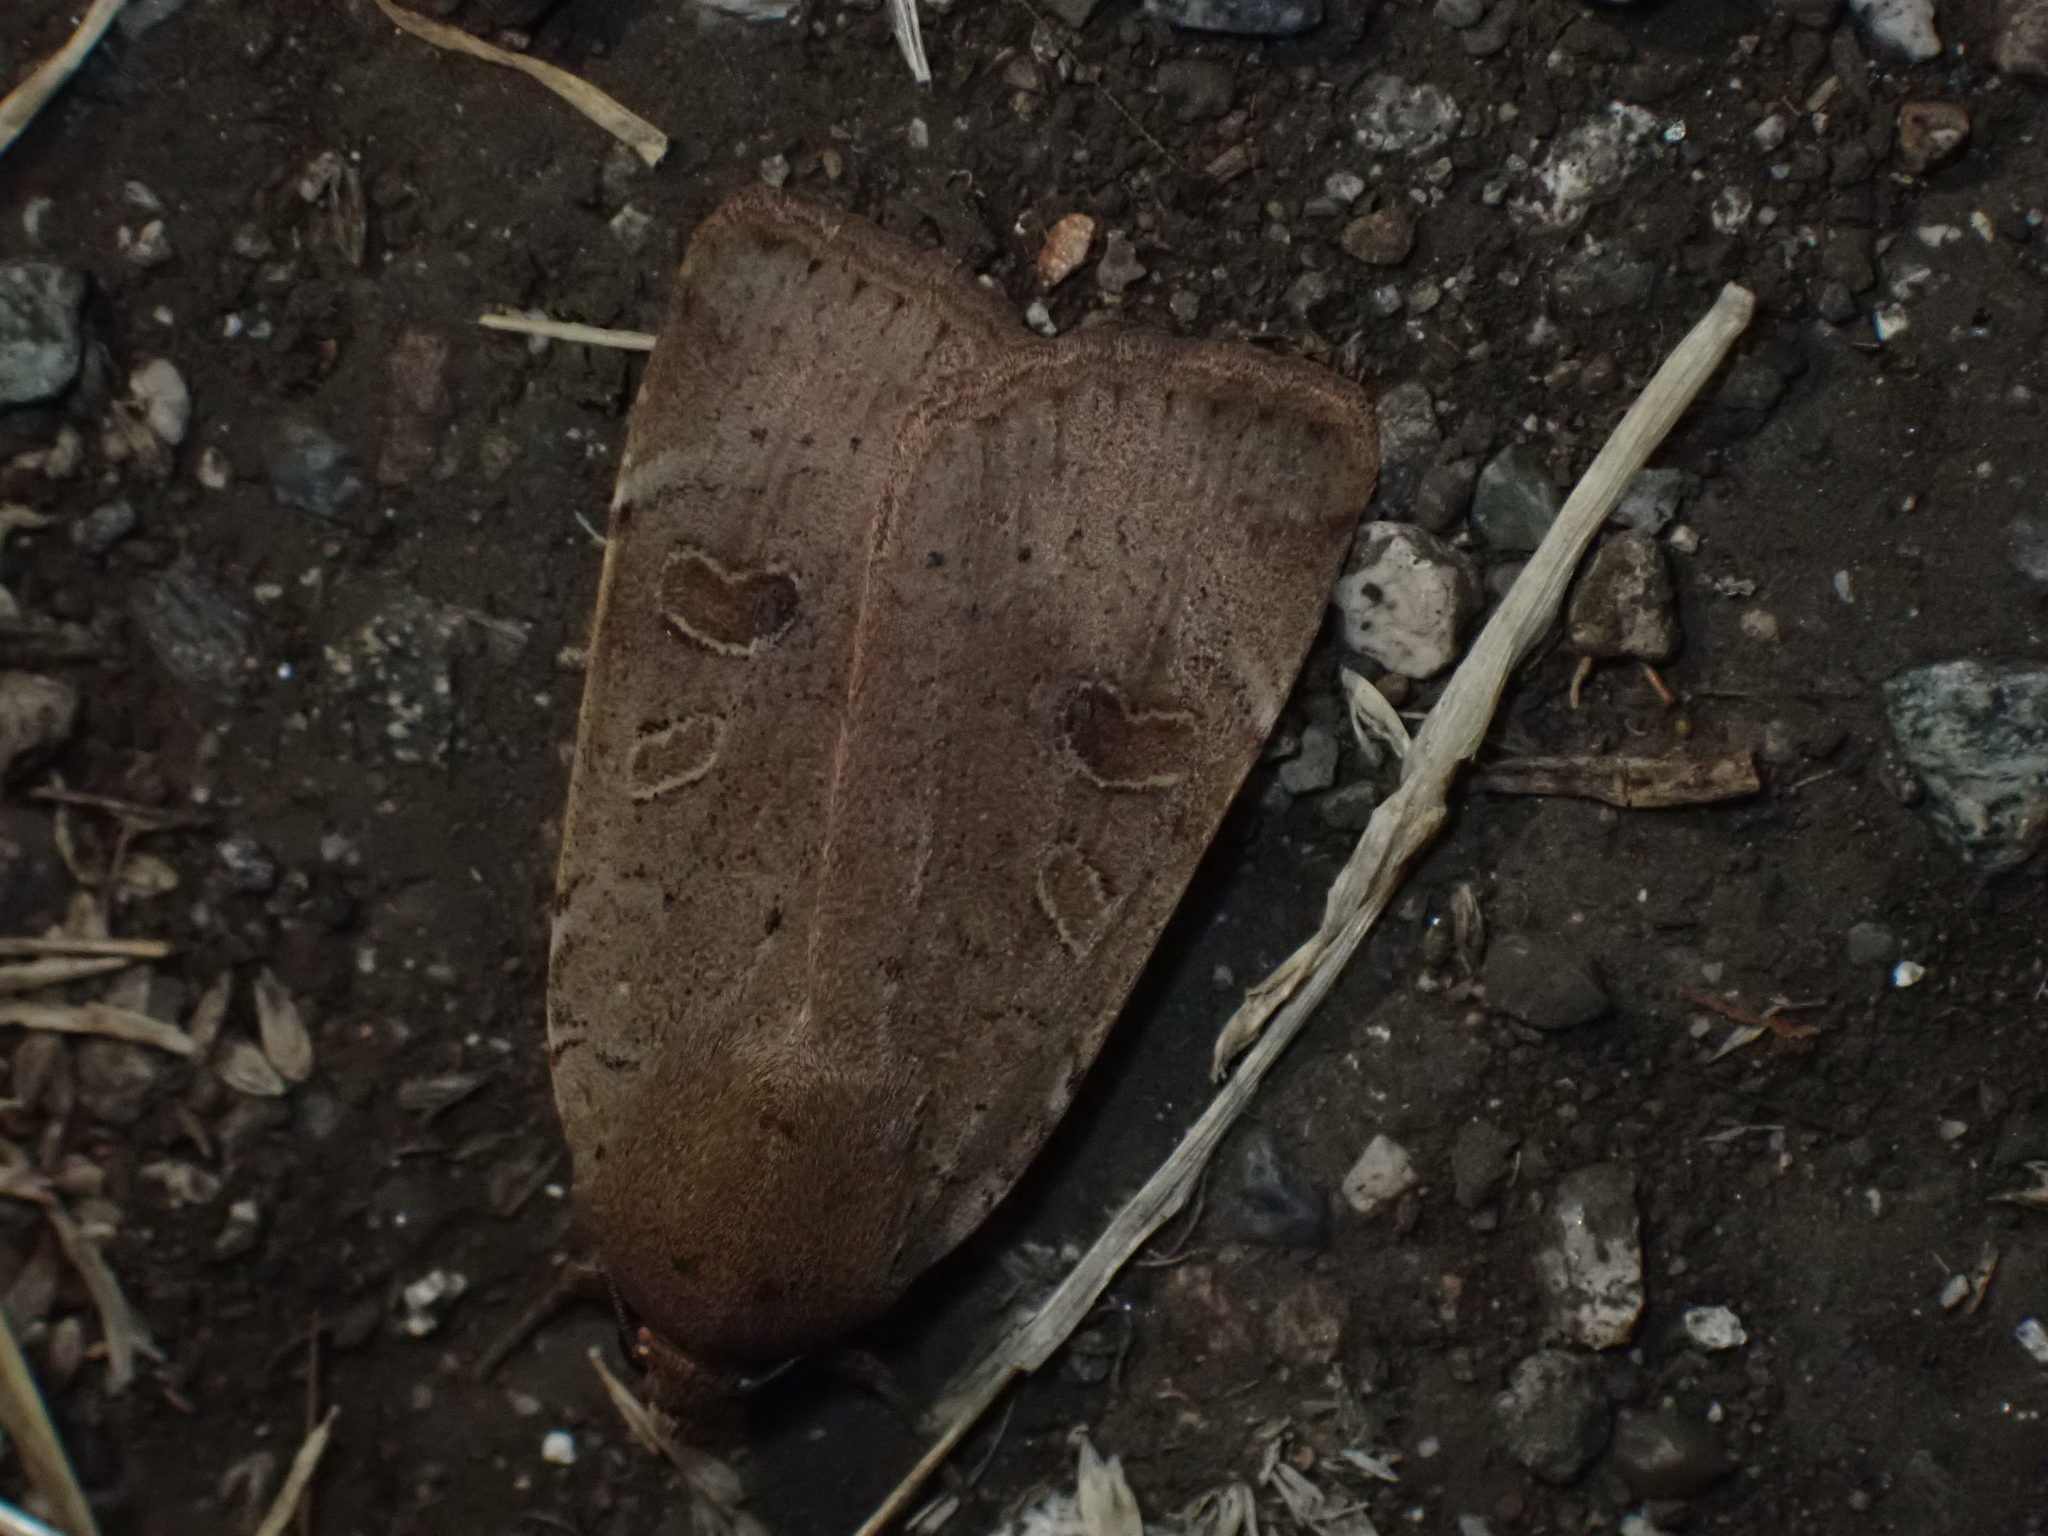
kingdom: Animalia
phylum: Arthropoda
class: Insecta
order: Lepidoptera
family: Noctuidae
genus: Noctua
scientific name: Noctua comes
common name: Lesser yellow underwing
